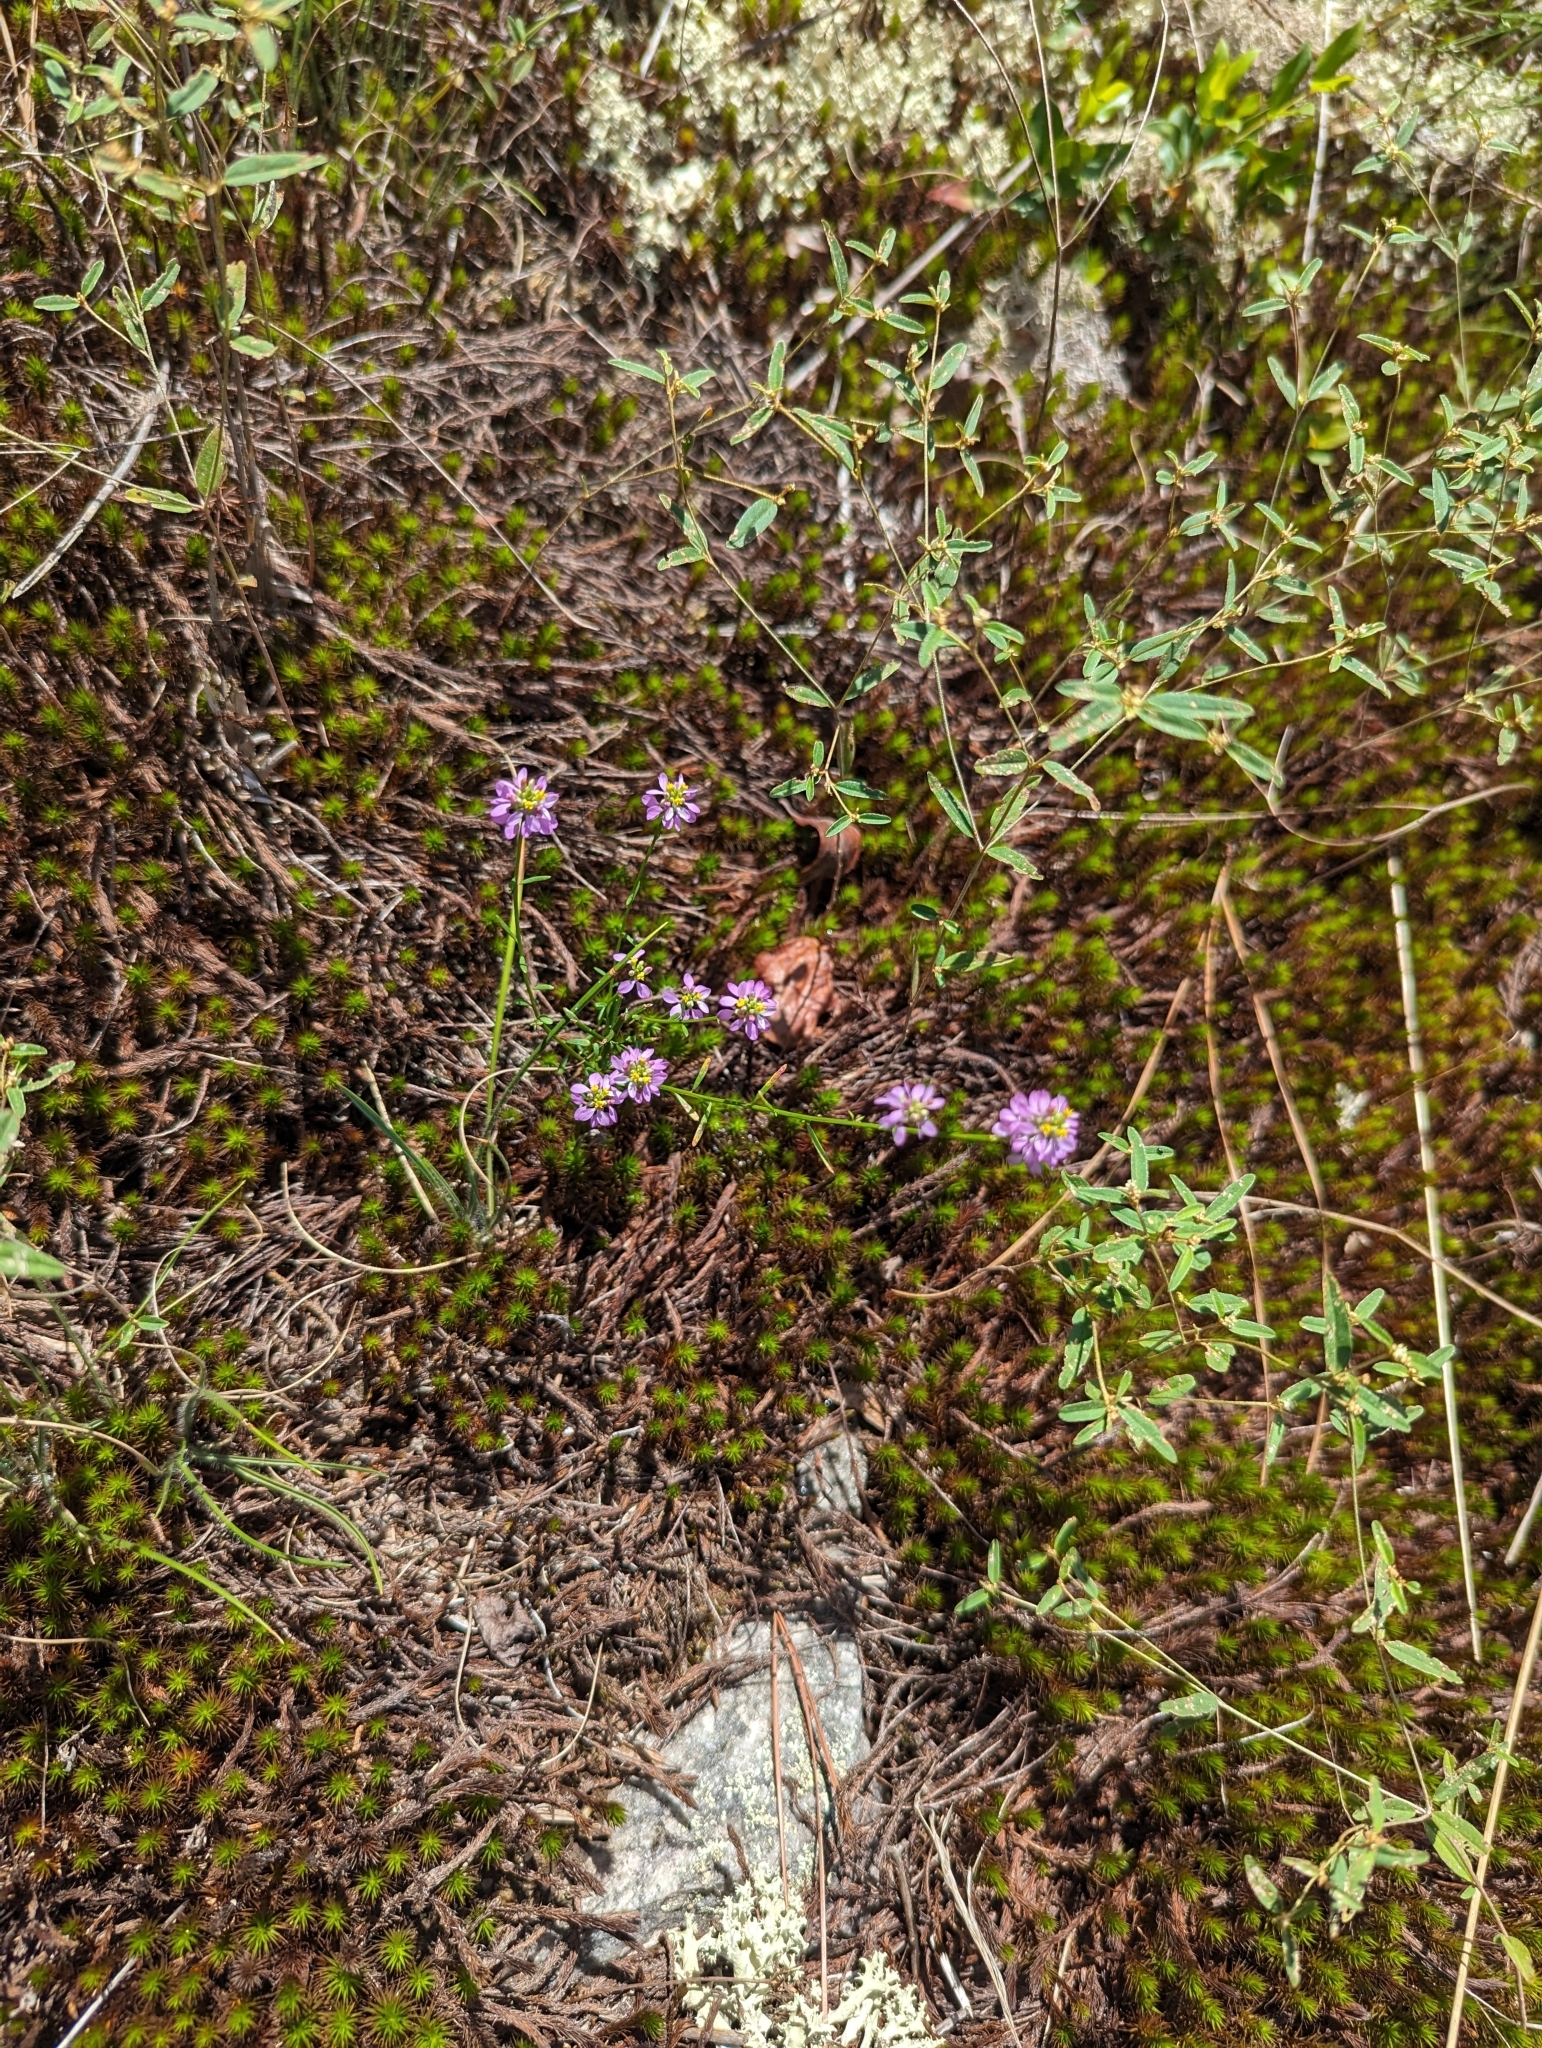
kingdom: Plantae
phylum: Tracheophyta
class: Magnoliopsida
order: Fabales
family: Polygalaceae
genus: Polygala
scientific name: Polygala curtissii
